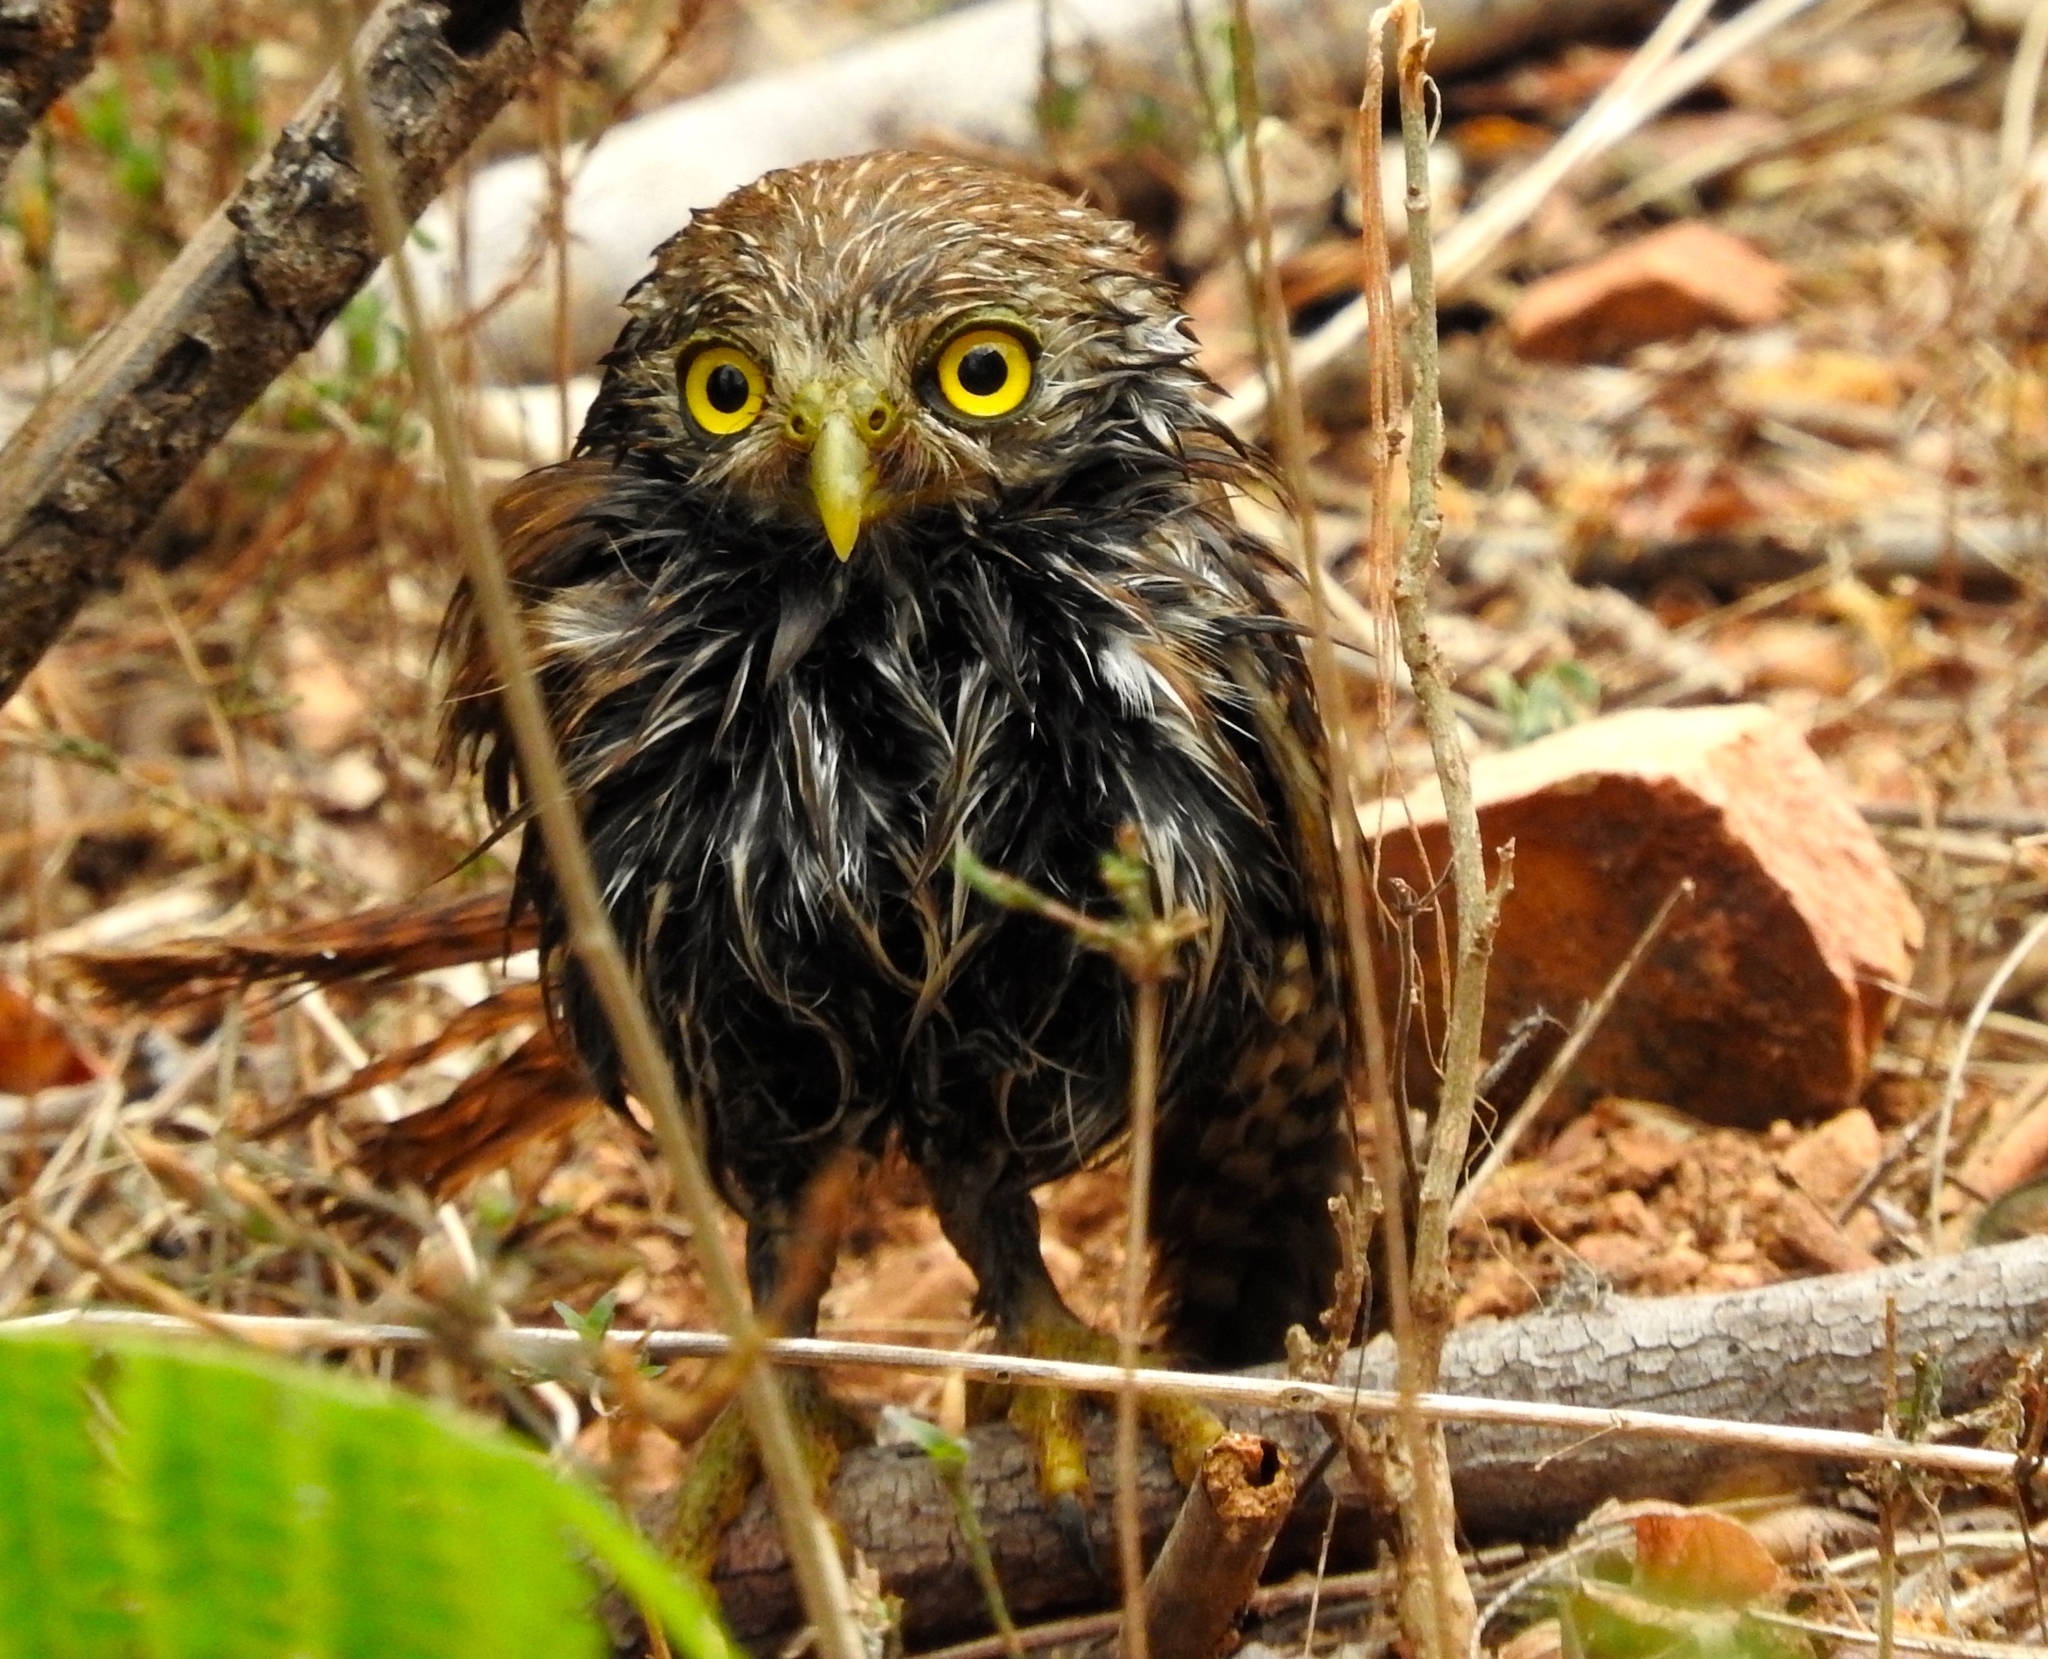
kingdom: Animalia
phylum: Chordata
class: Aves
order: Strigiformes
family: Strigidae
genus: Glaucidium
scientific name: Glaucidium brasilianum
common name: Ferruginous pygmy-owl
